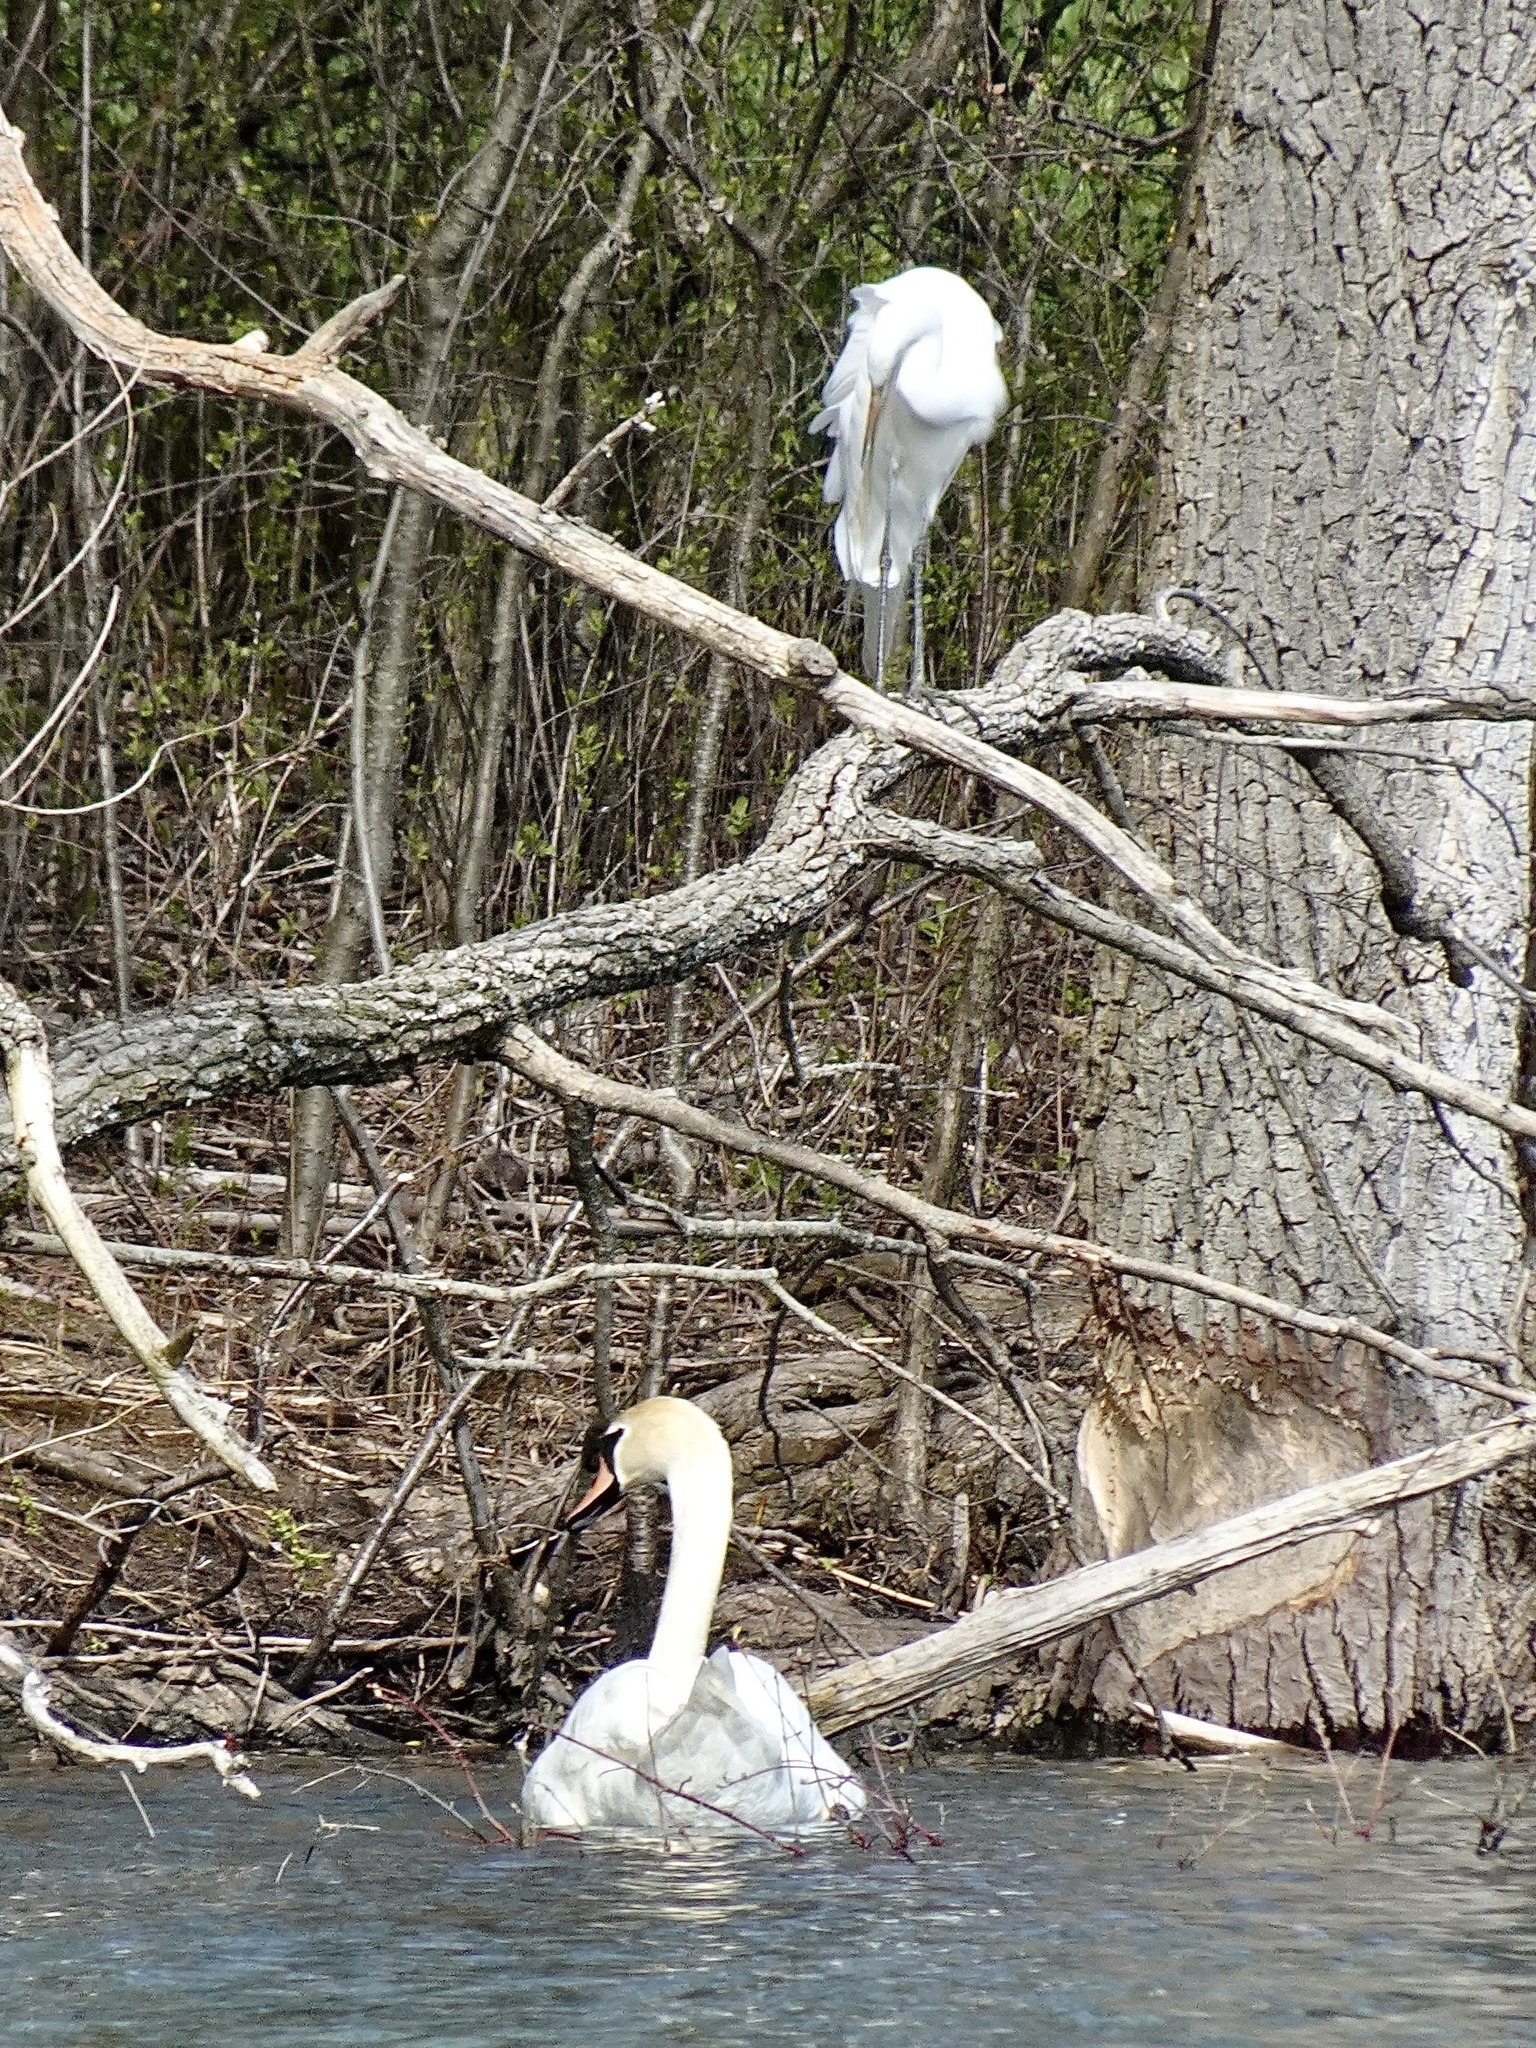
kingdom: Animalia
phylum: Chordata
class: Aves
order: Anseriformes
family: Anatidae
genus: Cygnus
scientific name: Cygnus olor
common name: Mute swan
